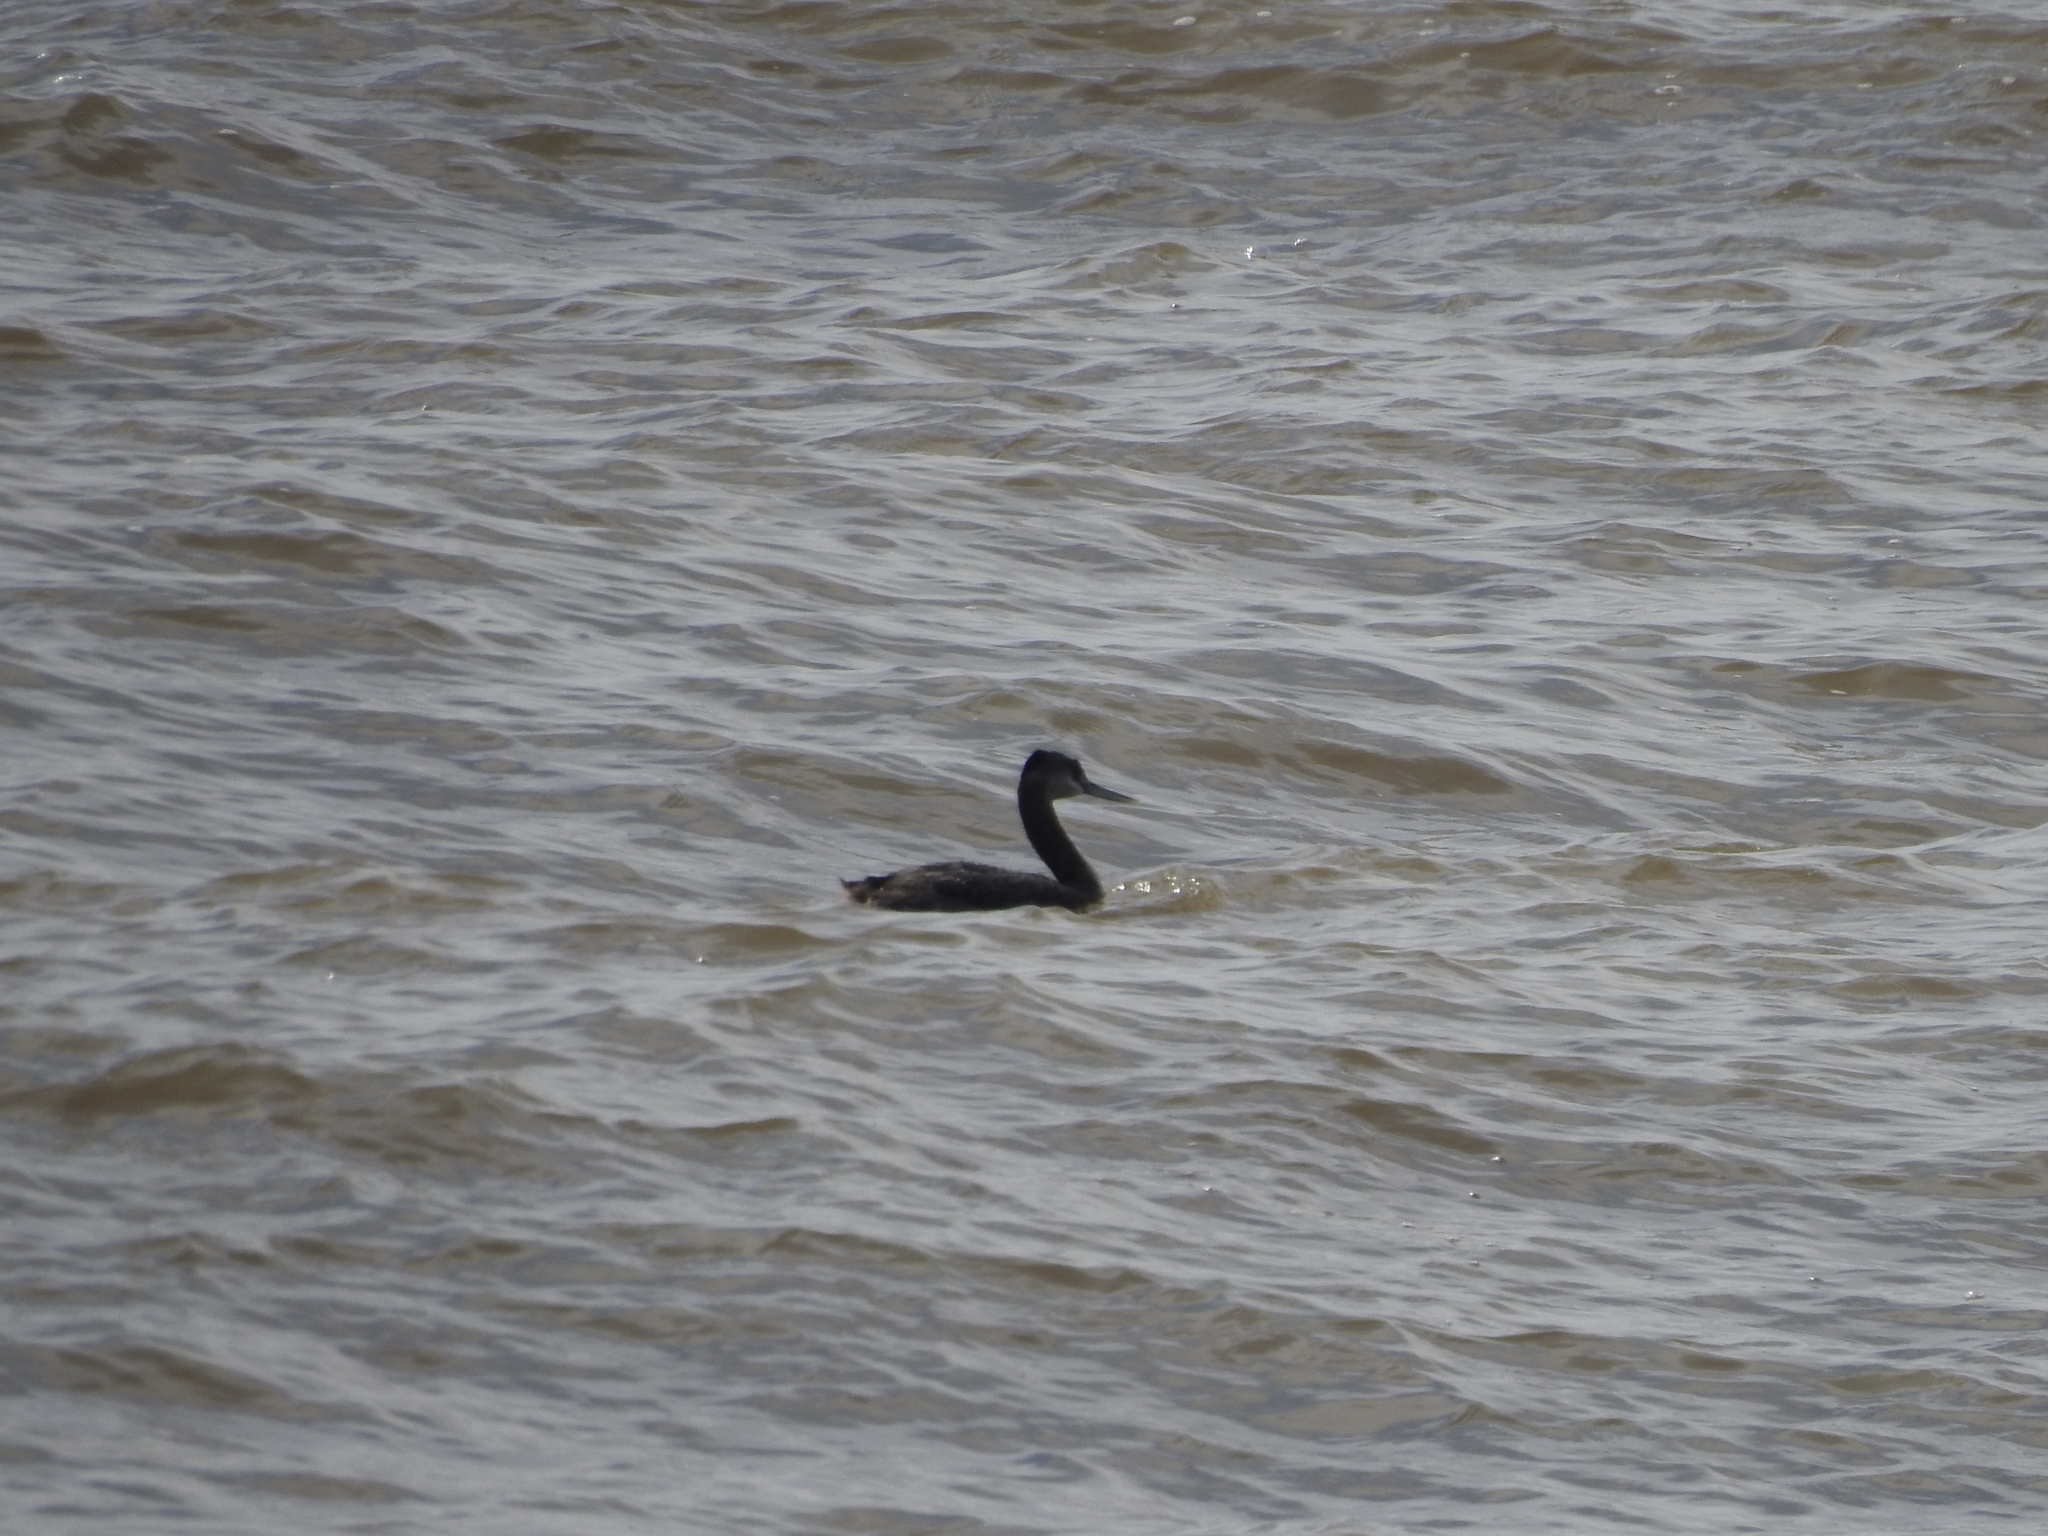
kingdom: Animalia
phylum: Chordata
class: Aves
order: Podicipediformes
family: Podicipedidae
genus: Podiceps
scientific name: Podiceps major
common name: Great grebe
